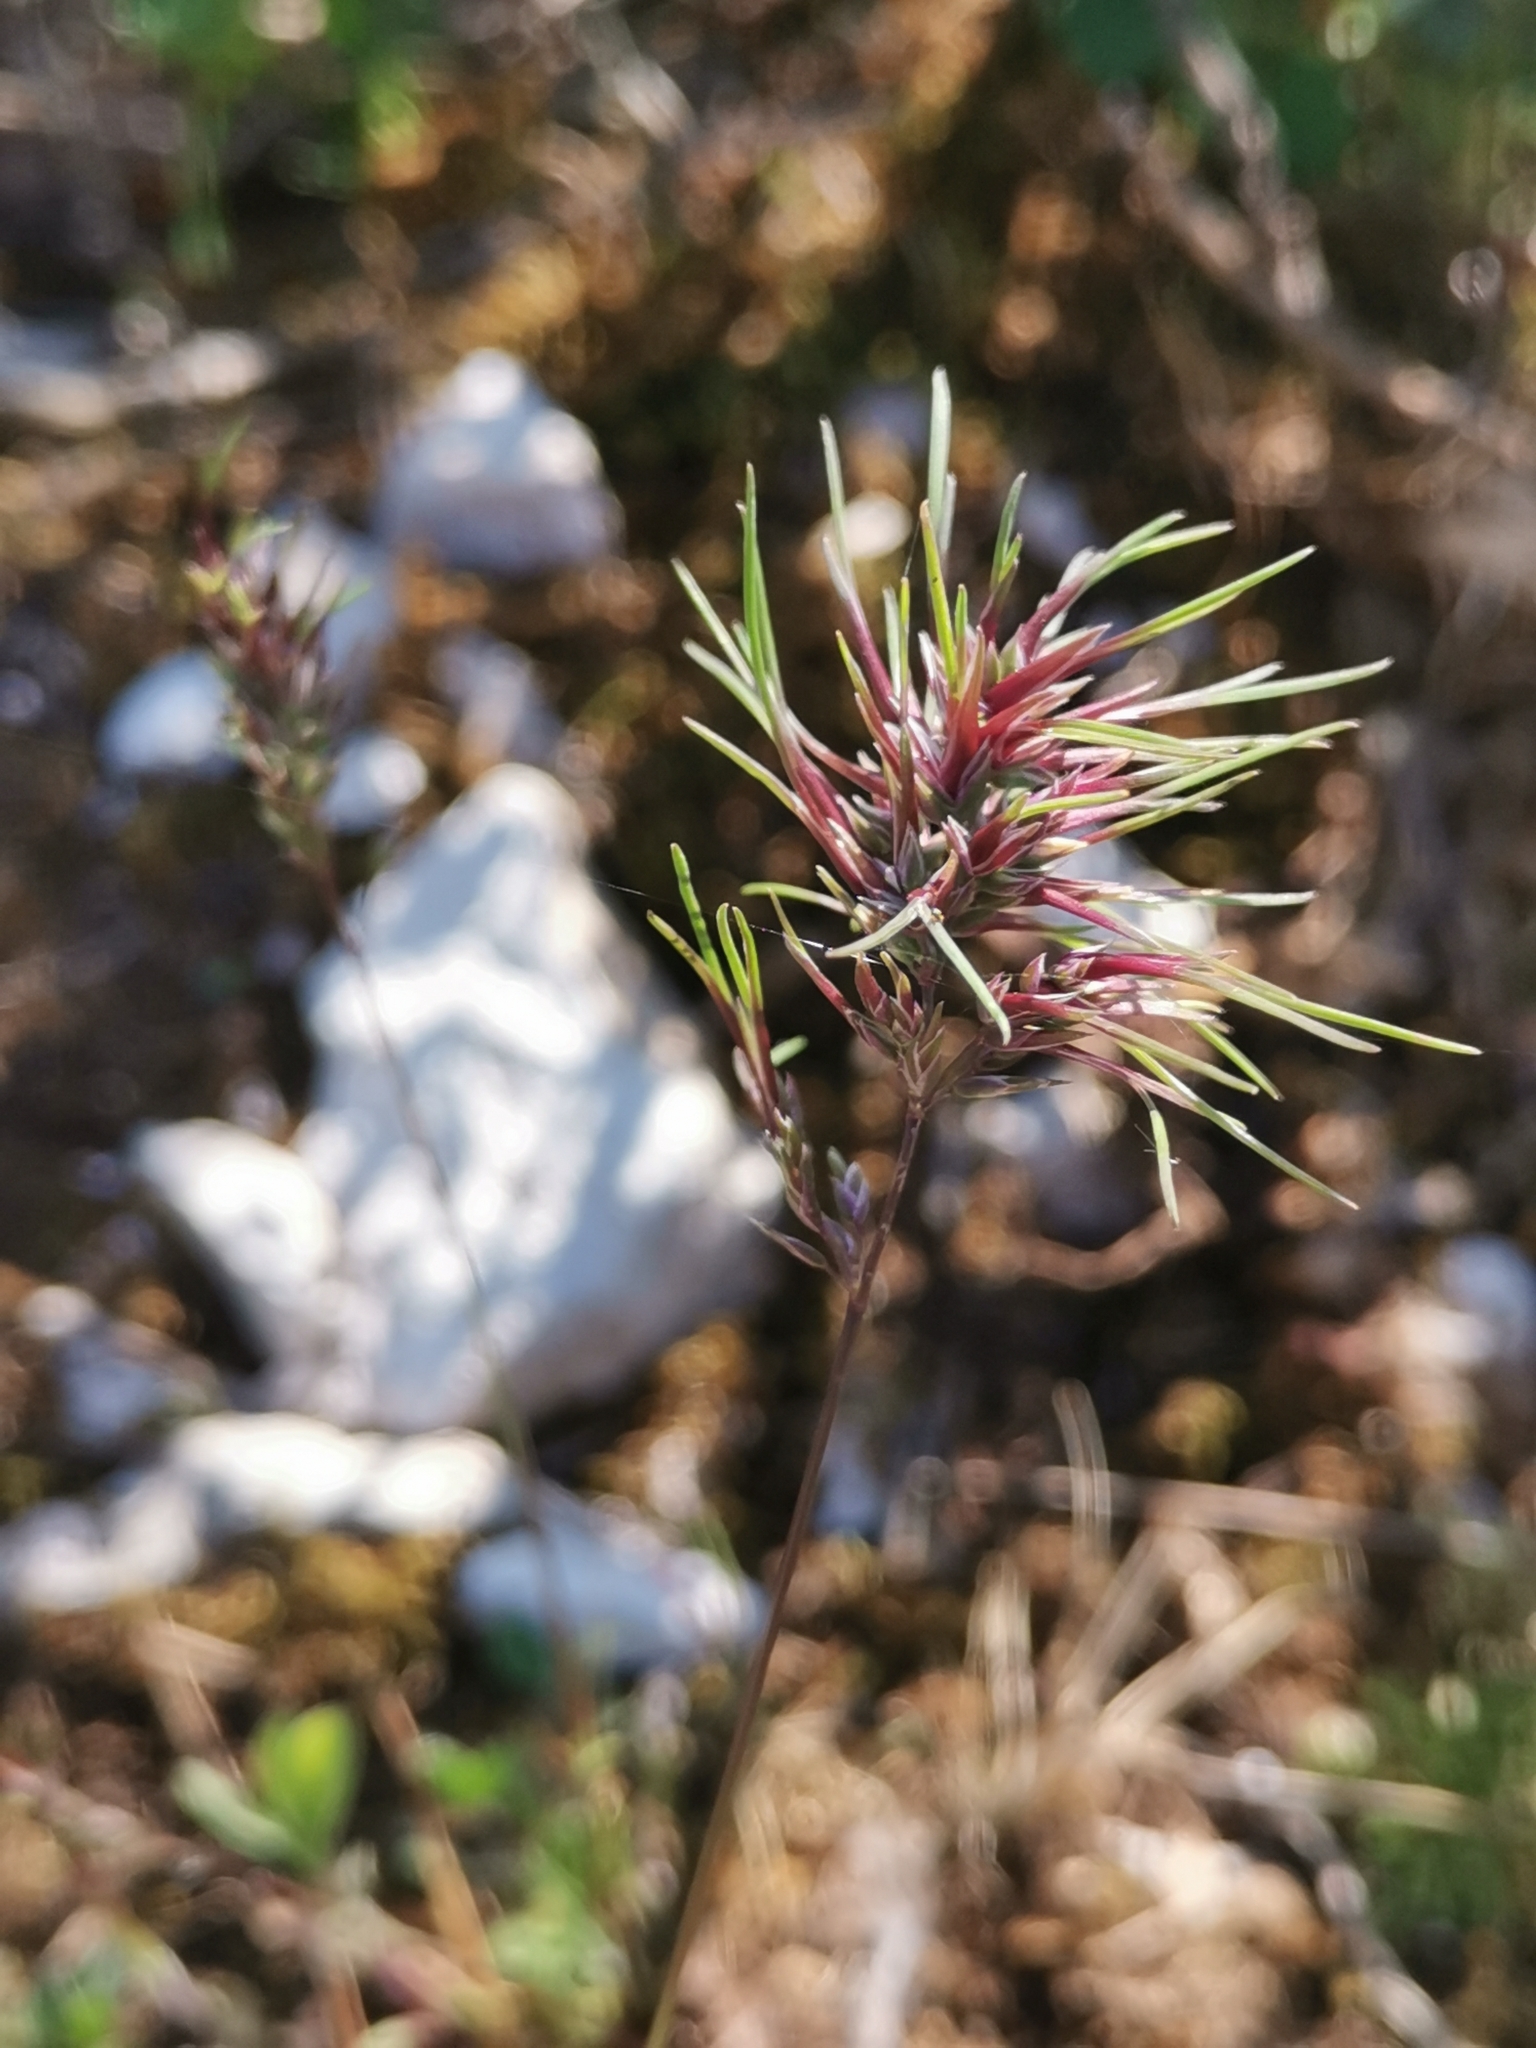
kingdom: Plantae
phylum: Tracheophyta
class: Liliopsida
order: Poales
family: Poaceae
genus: Poa
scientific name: Poa bulbosa
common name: Bulbous bluegrass
